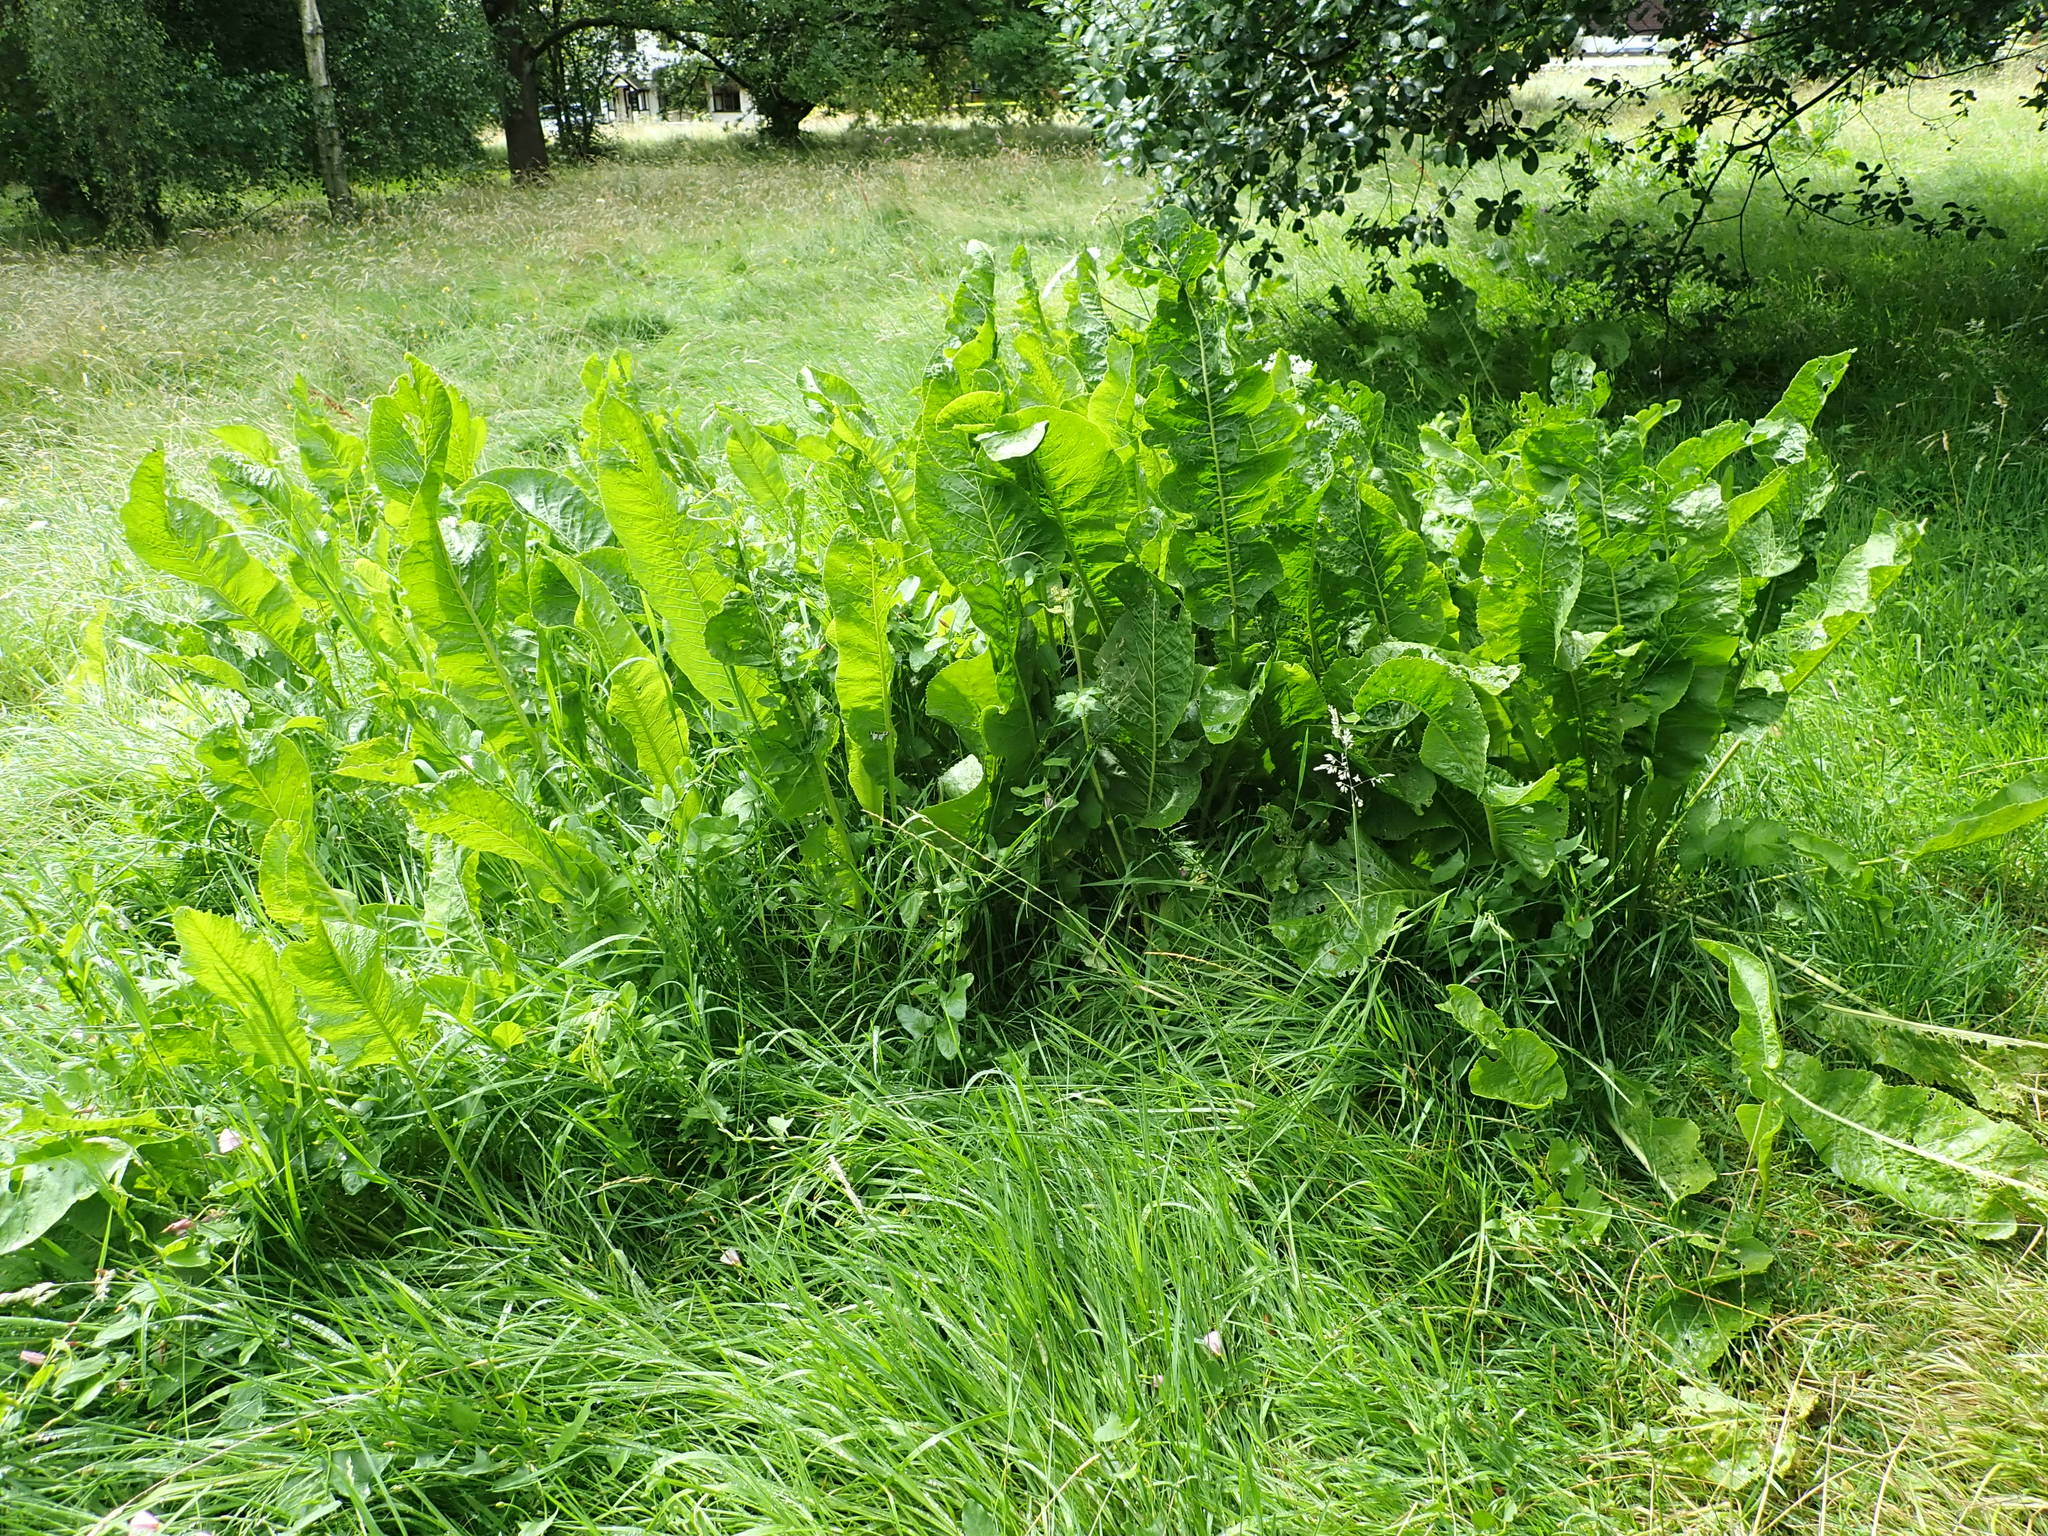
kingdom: Plantae
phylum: Tracheophyta
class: Magnoliopsida
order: Brassicales
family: Brassicaceae
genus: Armoracia
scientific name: Armoracia rusticana
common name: Horseradish
